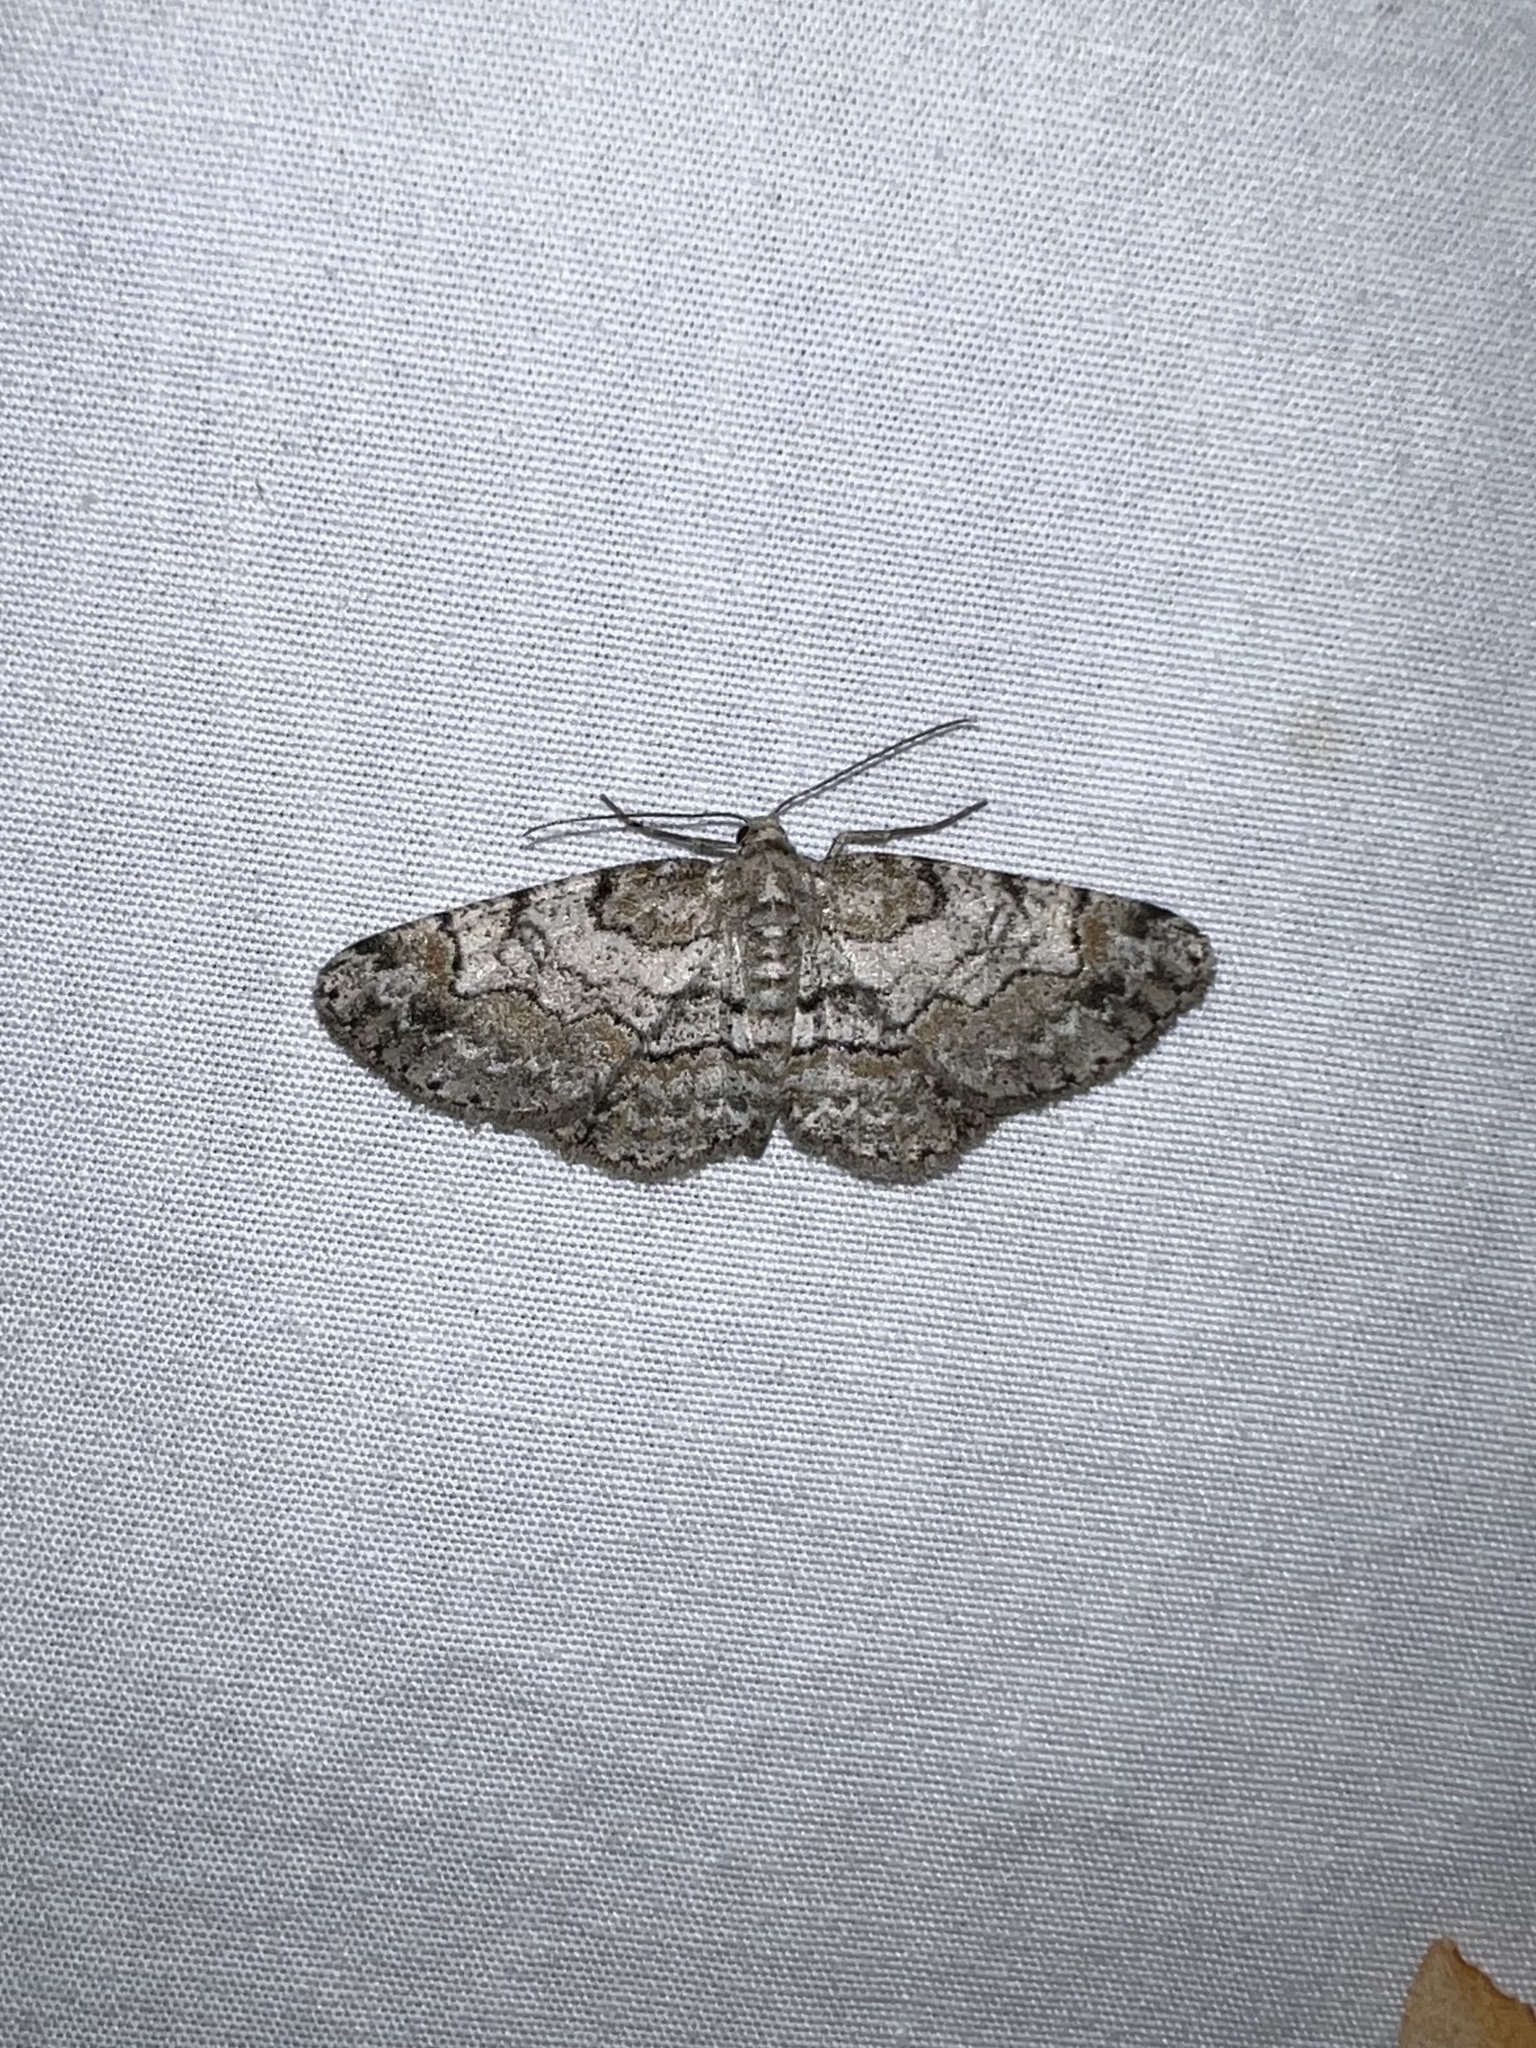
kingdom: Animalia
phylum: Arthropoda
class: Insecta
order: Lepidoptera
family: Geometridae
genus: Iridopsis
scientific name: Iridopsis ephyraria
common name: Pale-winged gray
